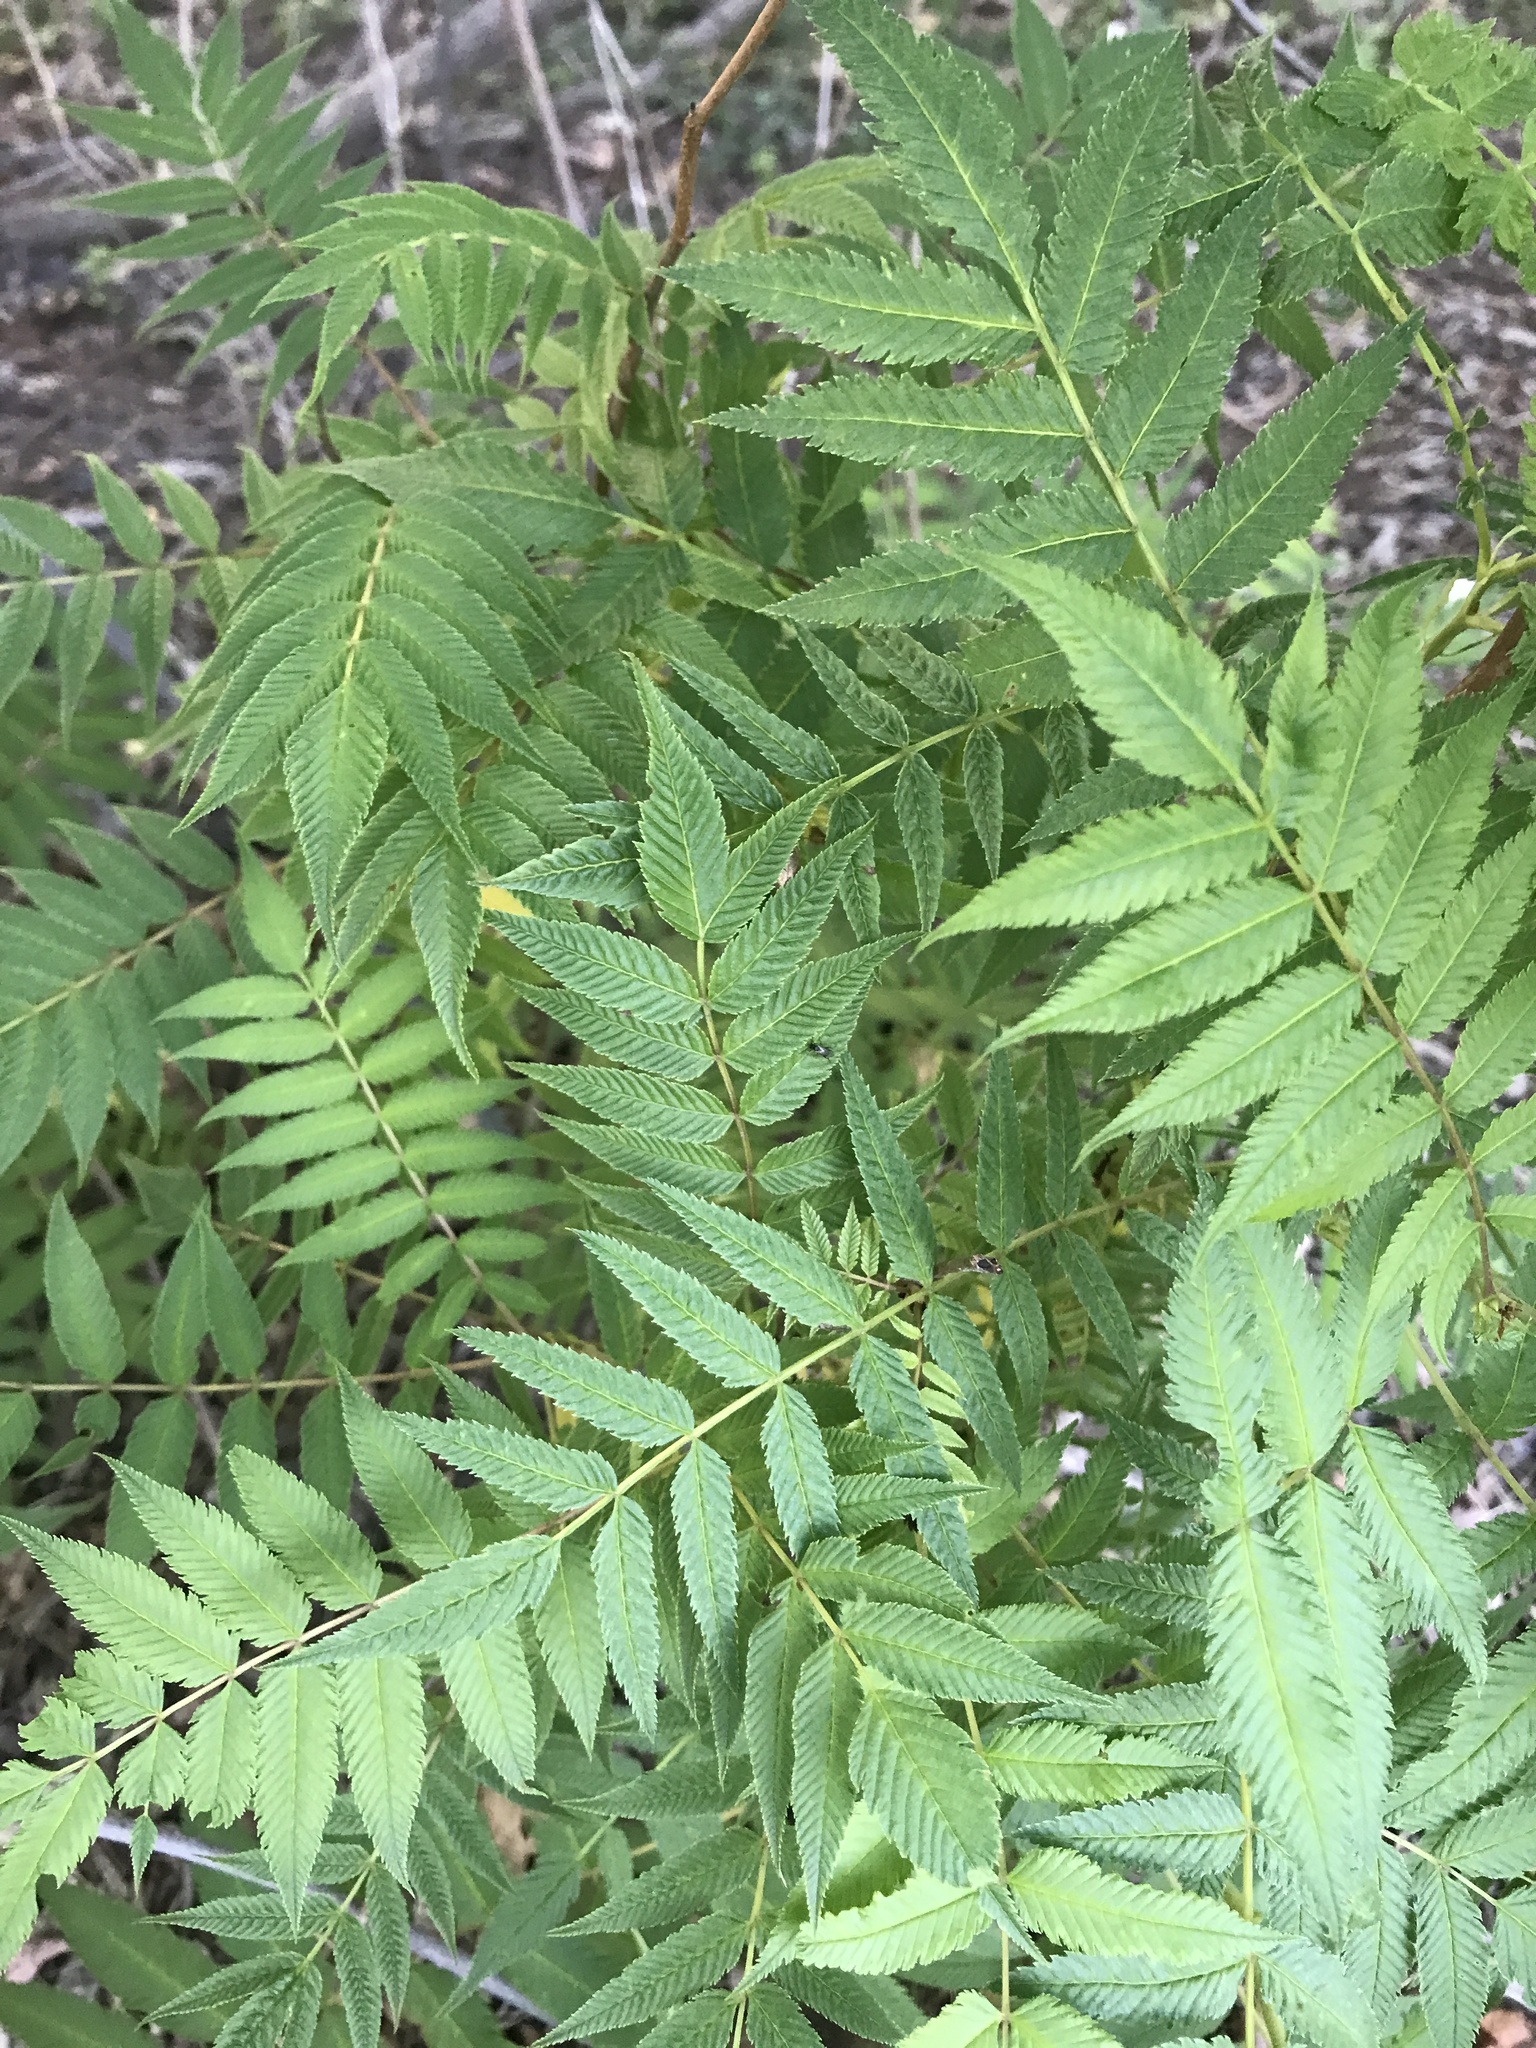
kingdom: Plantae
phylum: Tracheophyta
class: Magnoliopsida
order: Rosales
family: Rosaceae
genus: Sorbaria
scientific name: Sorbaria sorbifolia
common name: False spiraea
